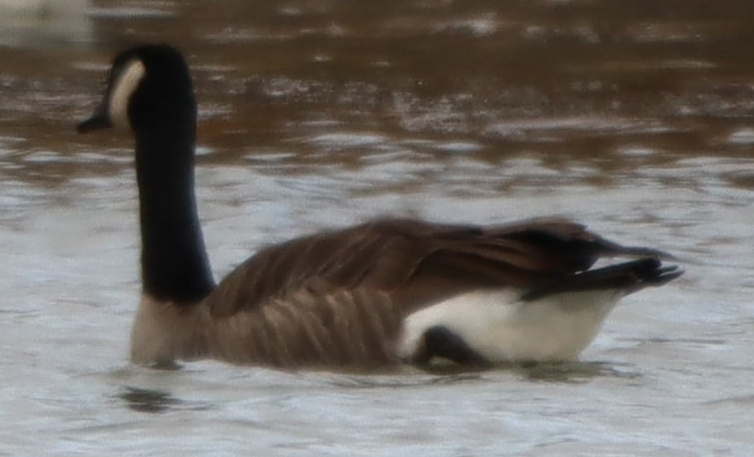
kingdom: Animalia
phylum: Chordata
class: Aves
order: Anseriformes
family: Anatidae
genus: Branta
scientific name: Branta canadensis
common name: Canada goose
